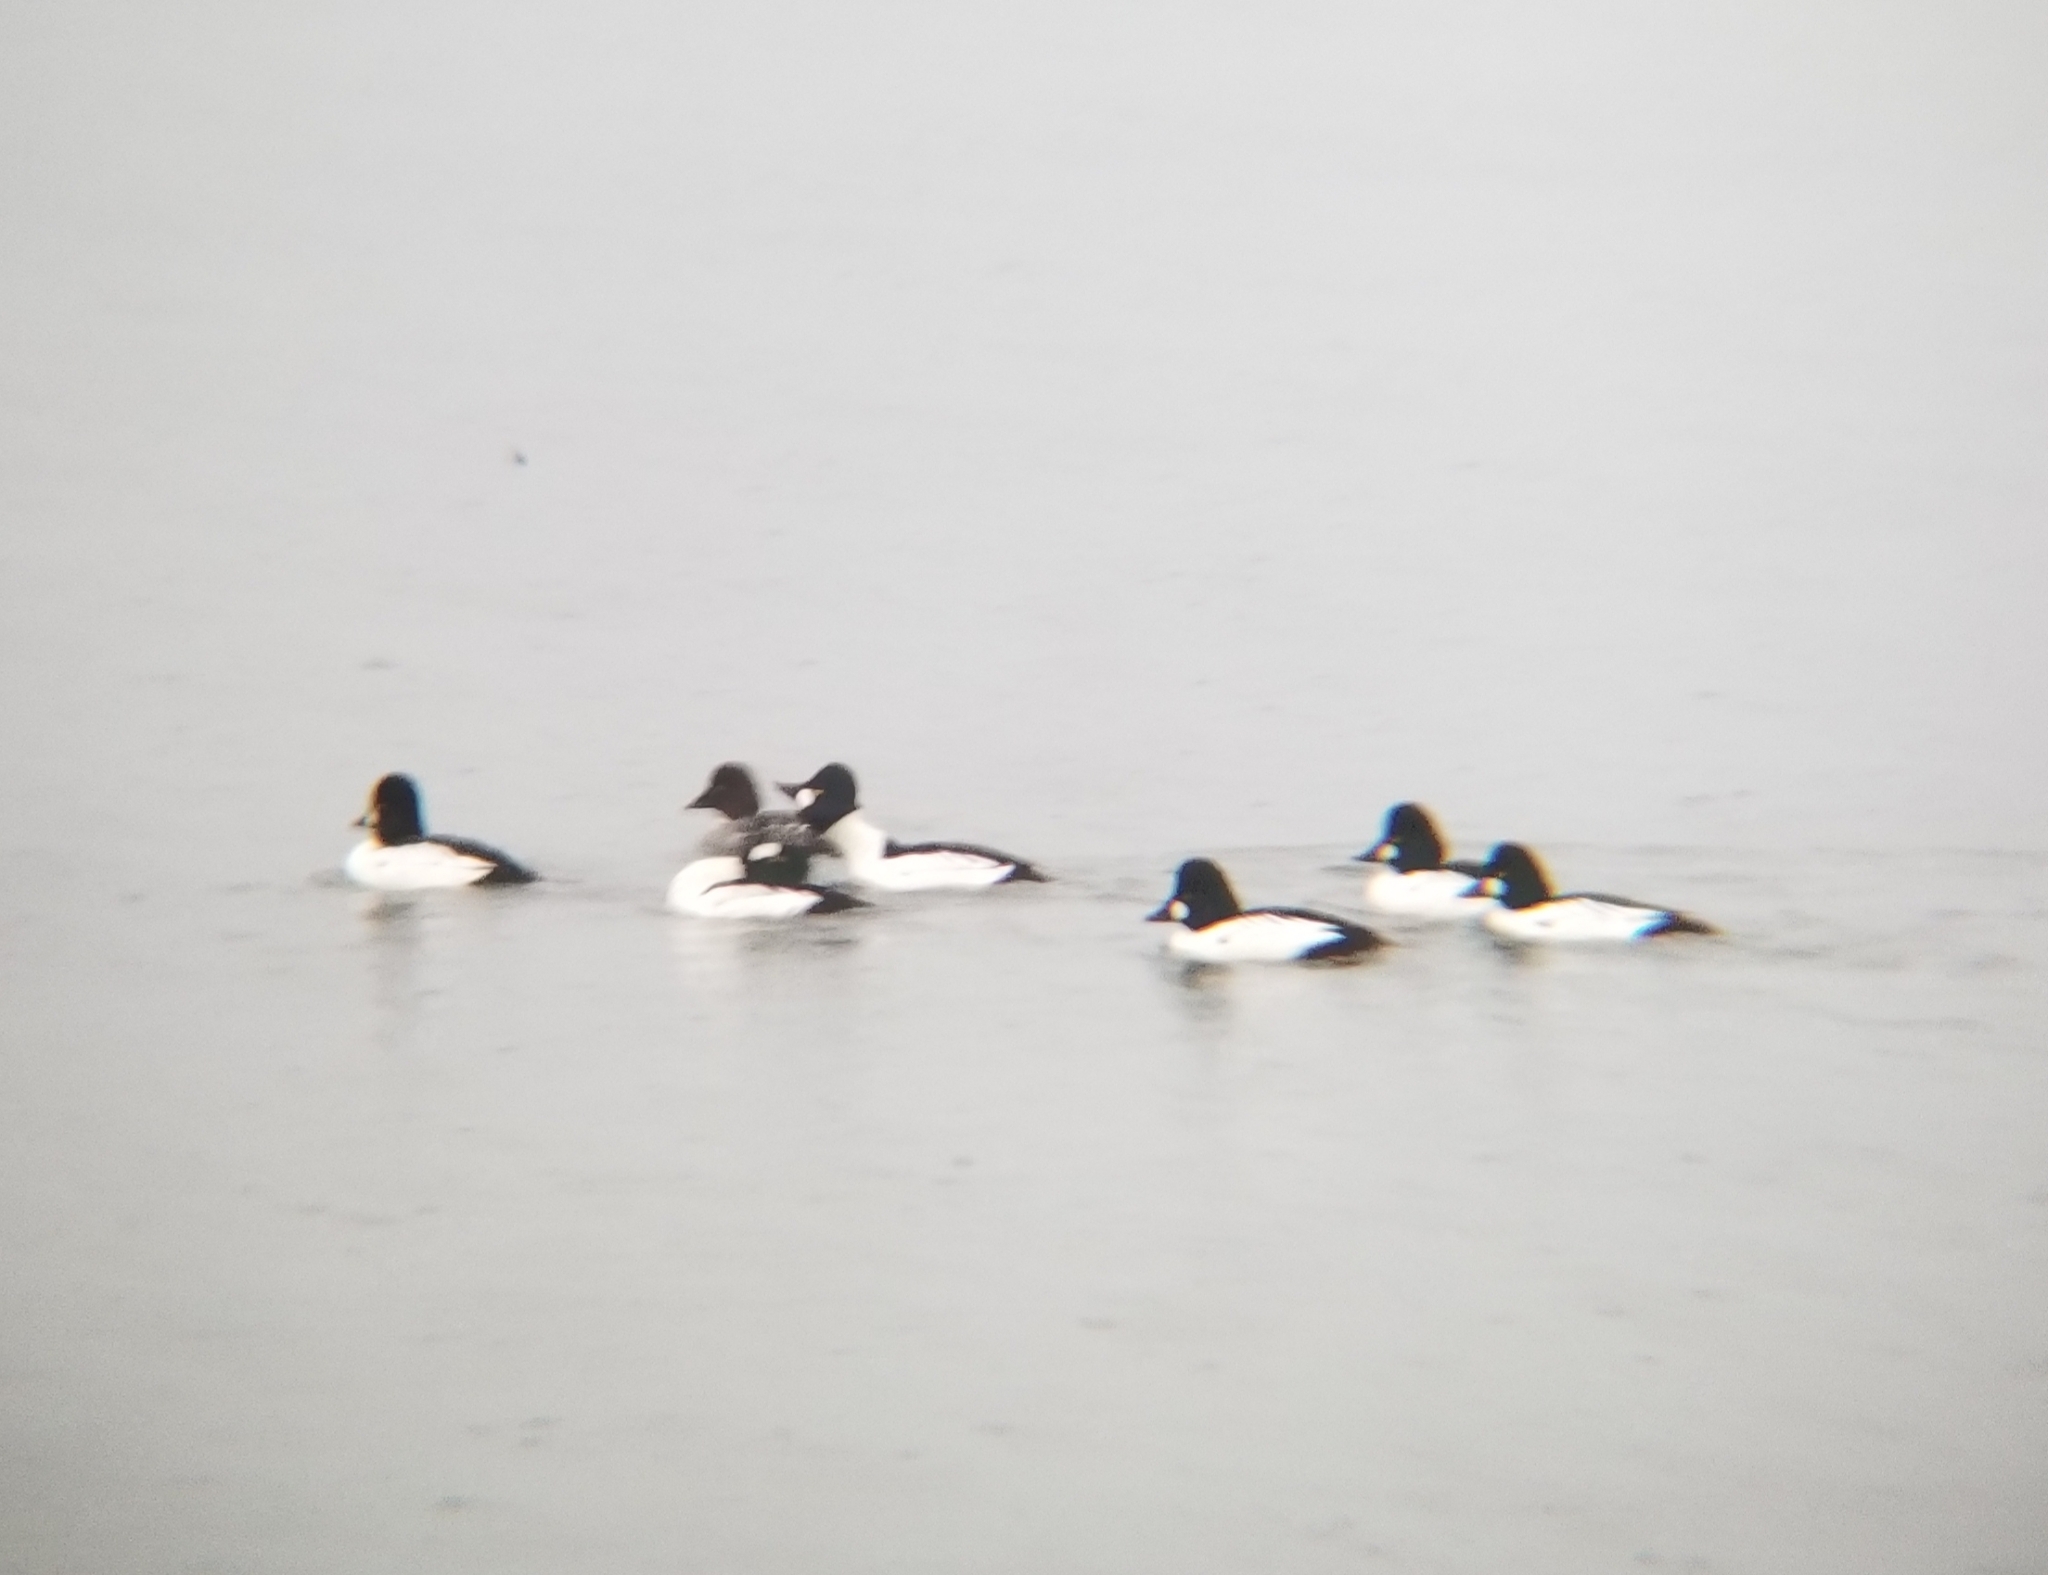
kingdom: Animalia
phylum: Chordata
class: Aves
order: Anseriformes
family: Anatidae
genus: Bucephala
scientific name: Bucephala clangula
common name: Common goldeneye
